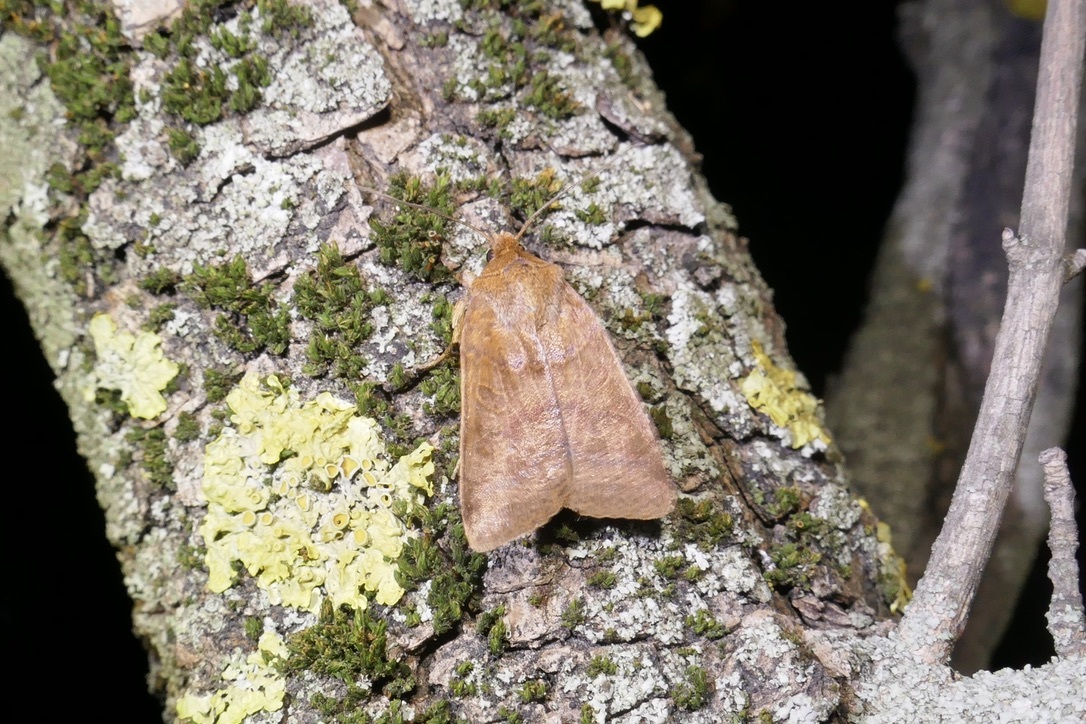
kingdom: Animalia
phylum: Arthropoda
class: Insecta
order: Lepidoptera
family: Noctuidae
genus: Agrochola
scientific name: Agrochola helvola
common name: Flounced chestnut
